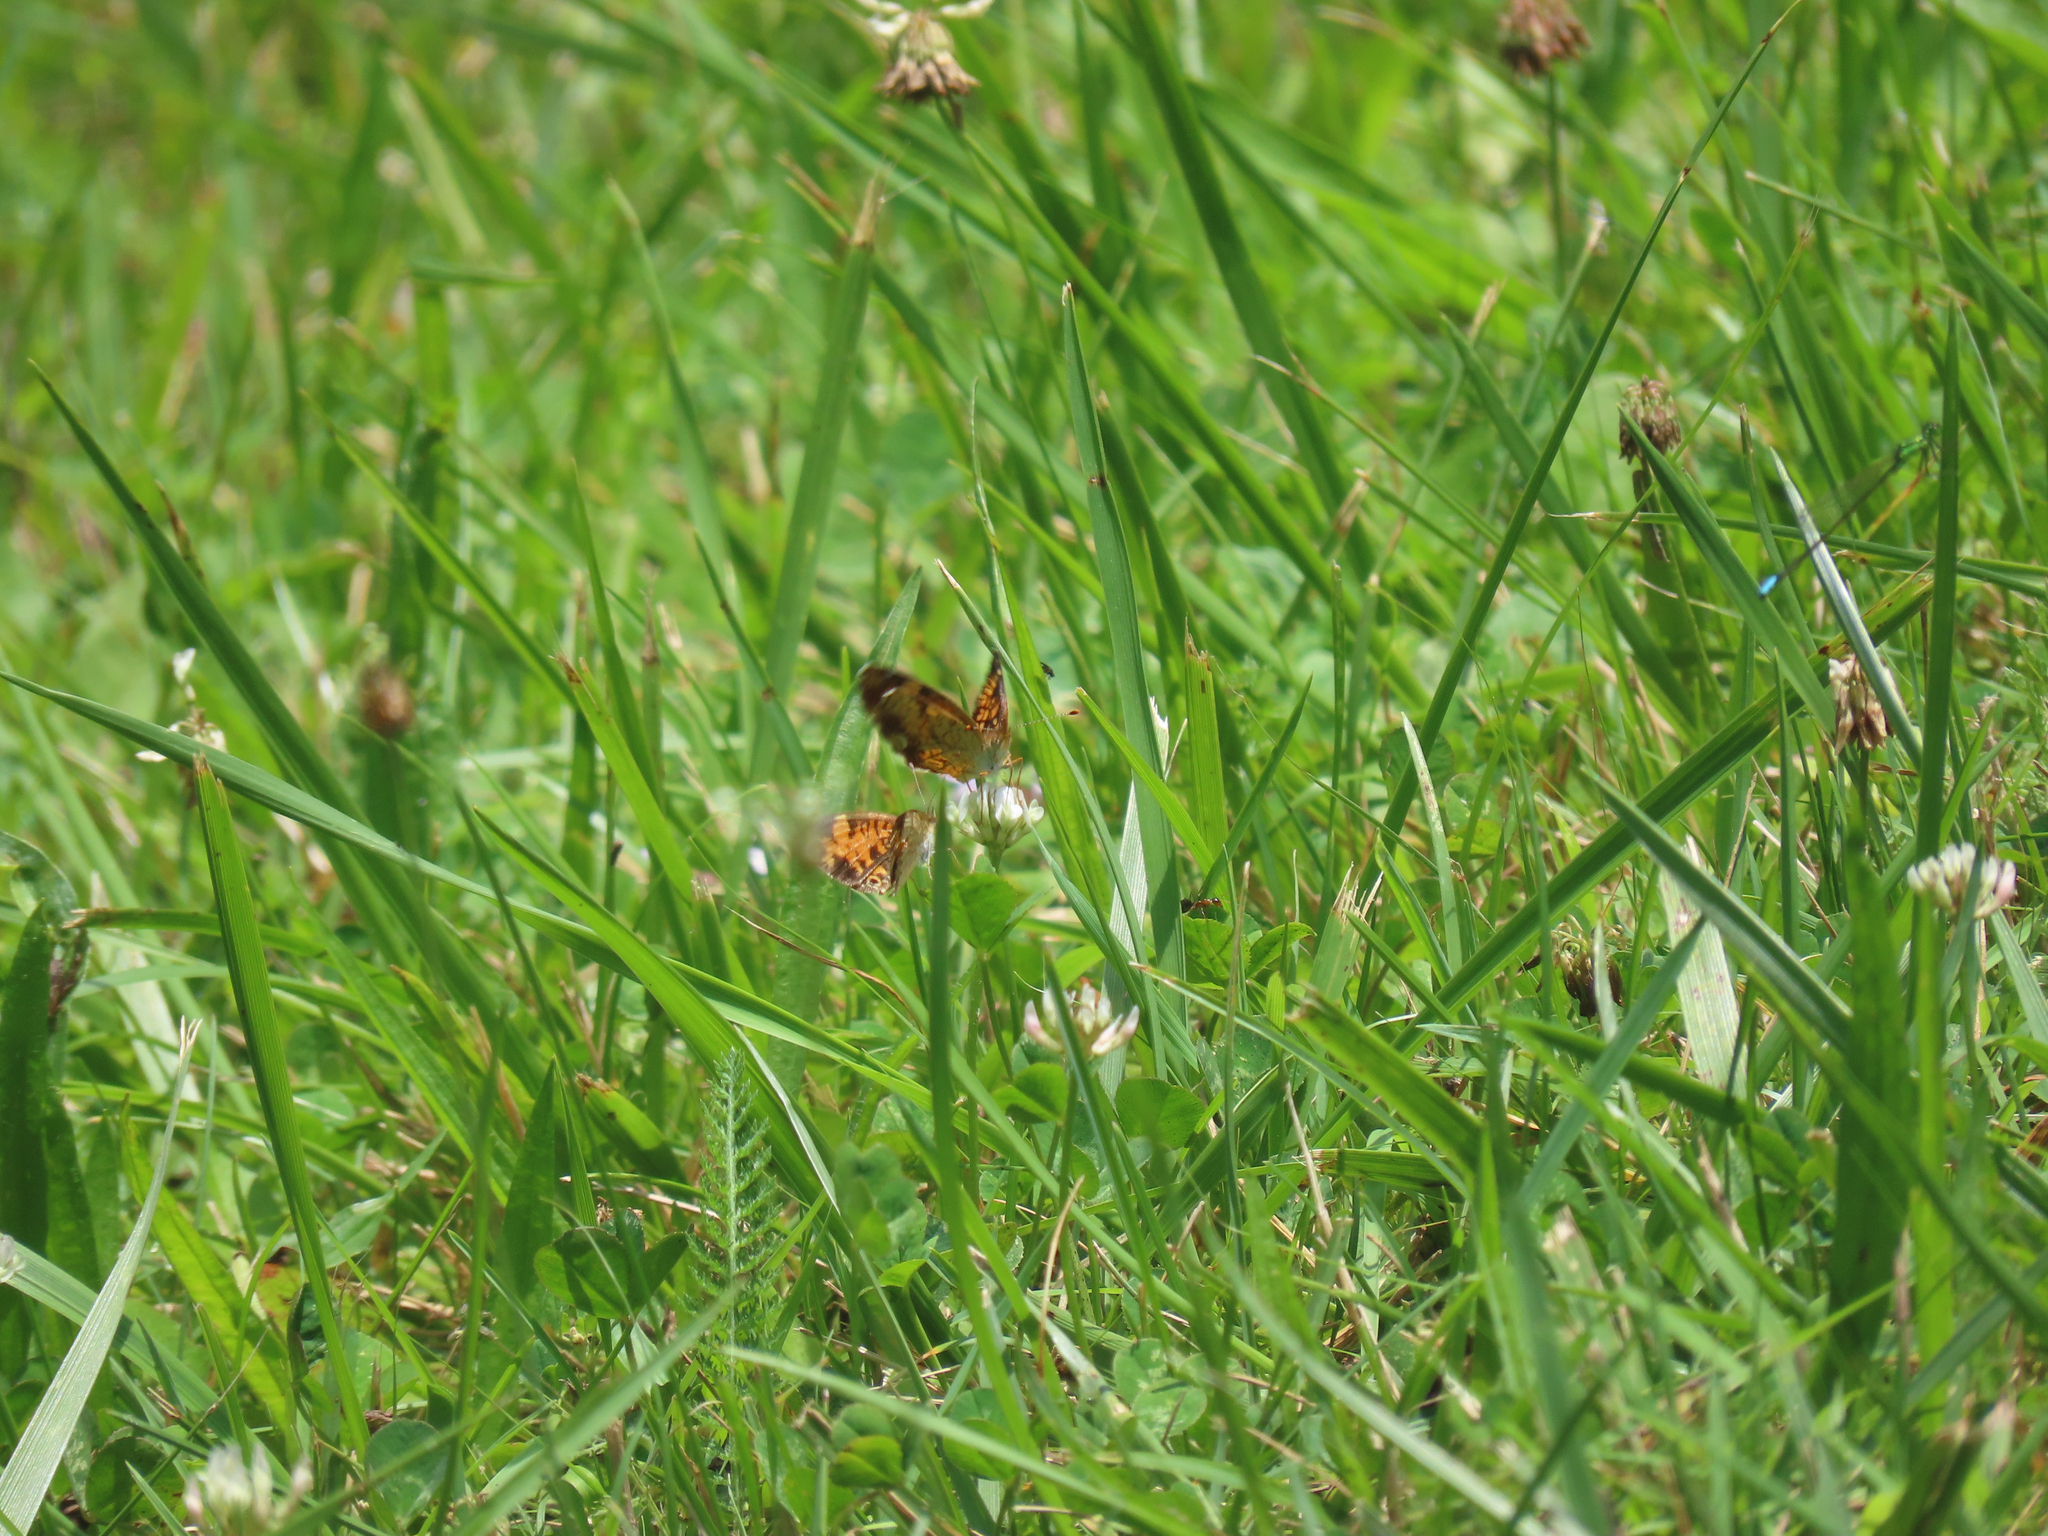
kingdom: Animalia
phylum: Arthropoda
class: Insecta
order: Lepidoptera
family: Nymphalidae
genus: Phyciodes
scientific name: Phyciodes tharos
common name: Pearl crescent
